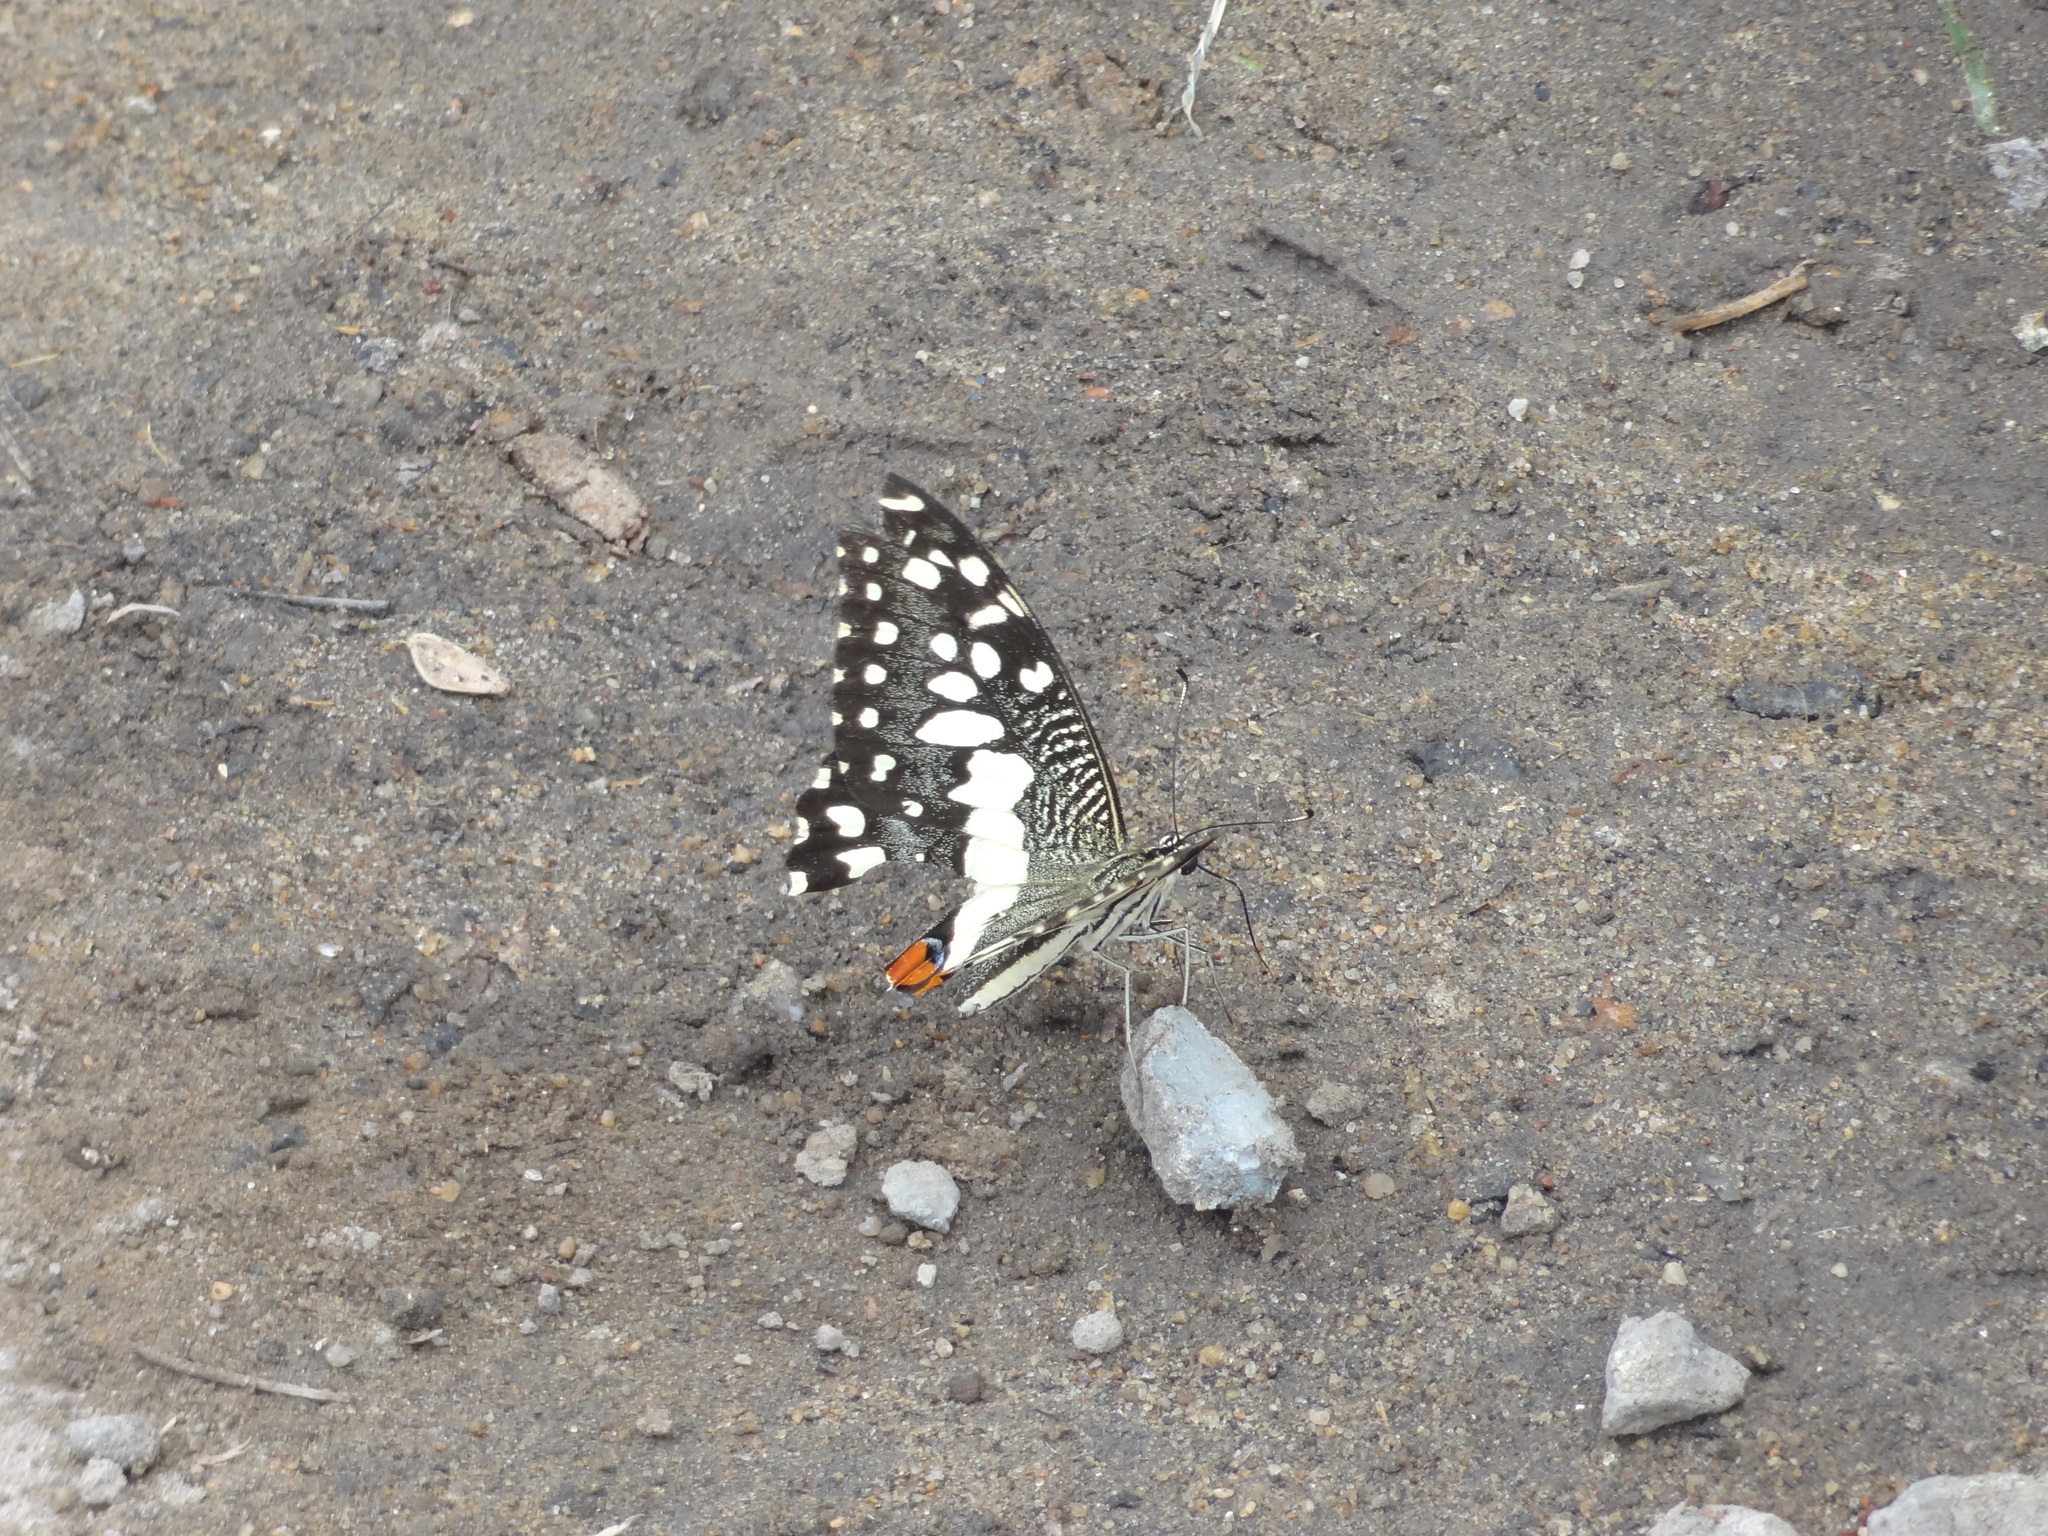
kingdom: Animalia
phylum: Arthropoda
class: Insecta
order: Lepidoptera
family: Papilionidae
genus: Papilio
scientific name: Papilio demoleus
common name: Lime butterfly
